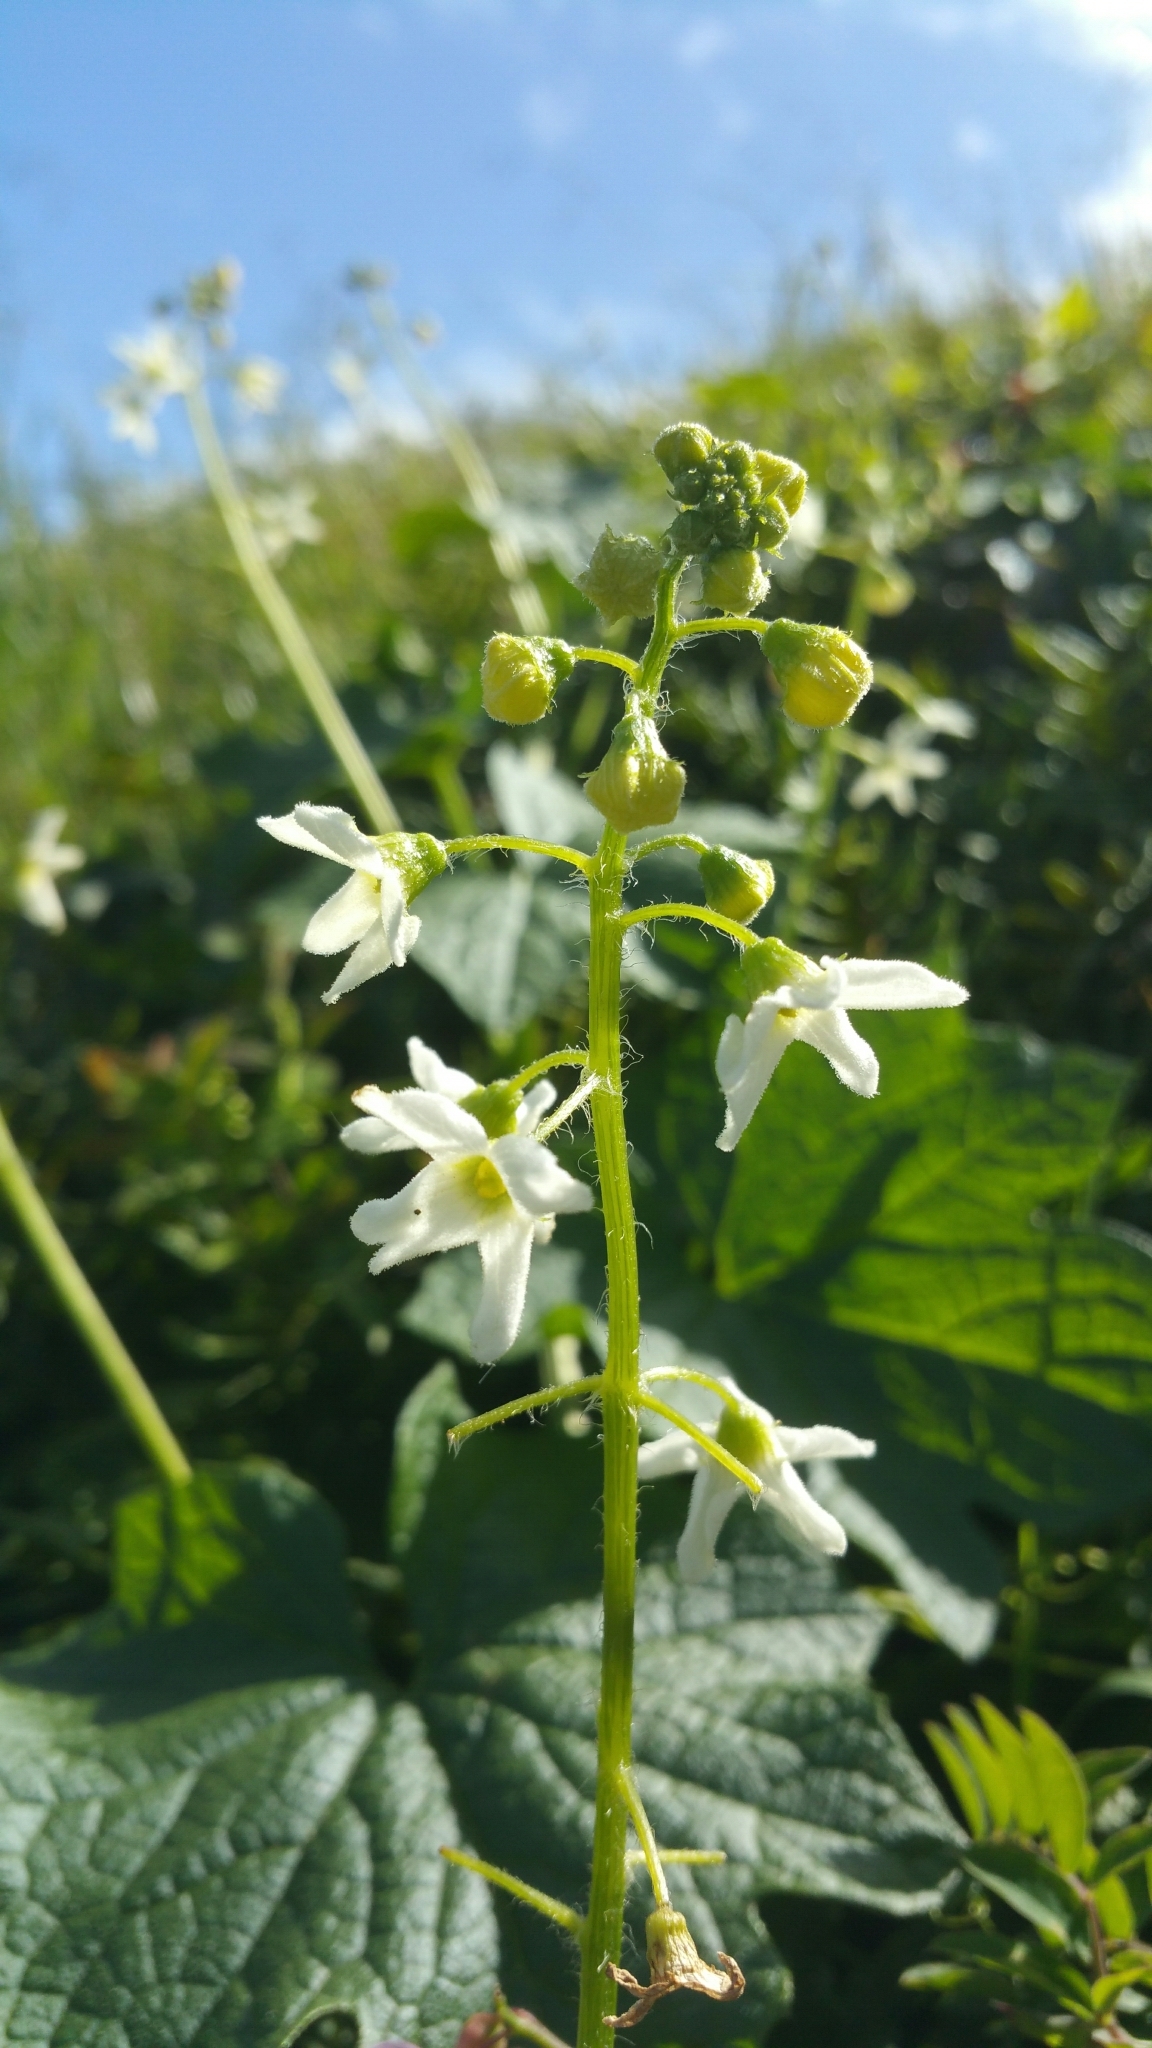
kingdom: Plantae
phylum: Tracheophyta
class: Magnoliopsida
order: Cucurbitales
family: Cucurbitaceae
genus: Marah
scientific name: Marah oregana
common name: Coastal manroot
